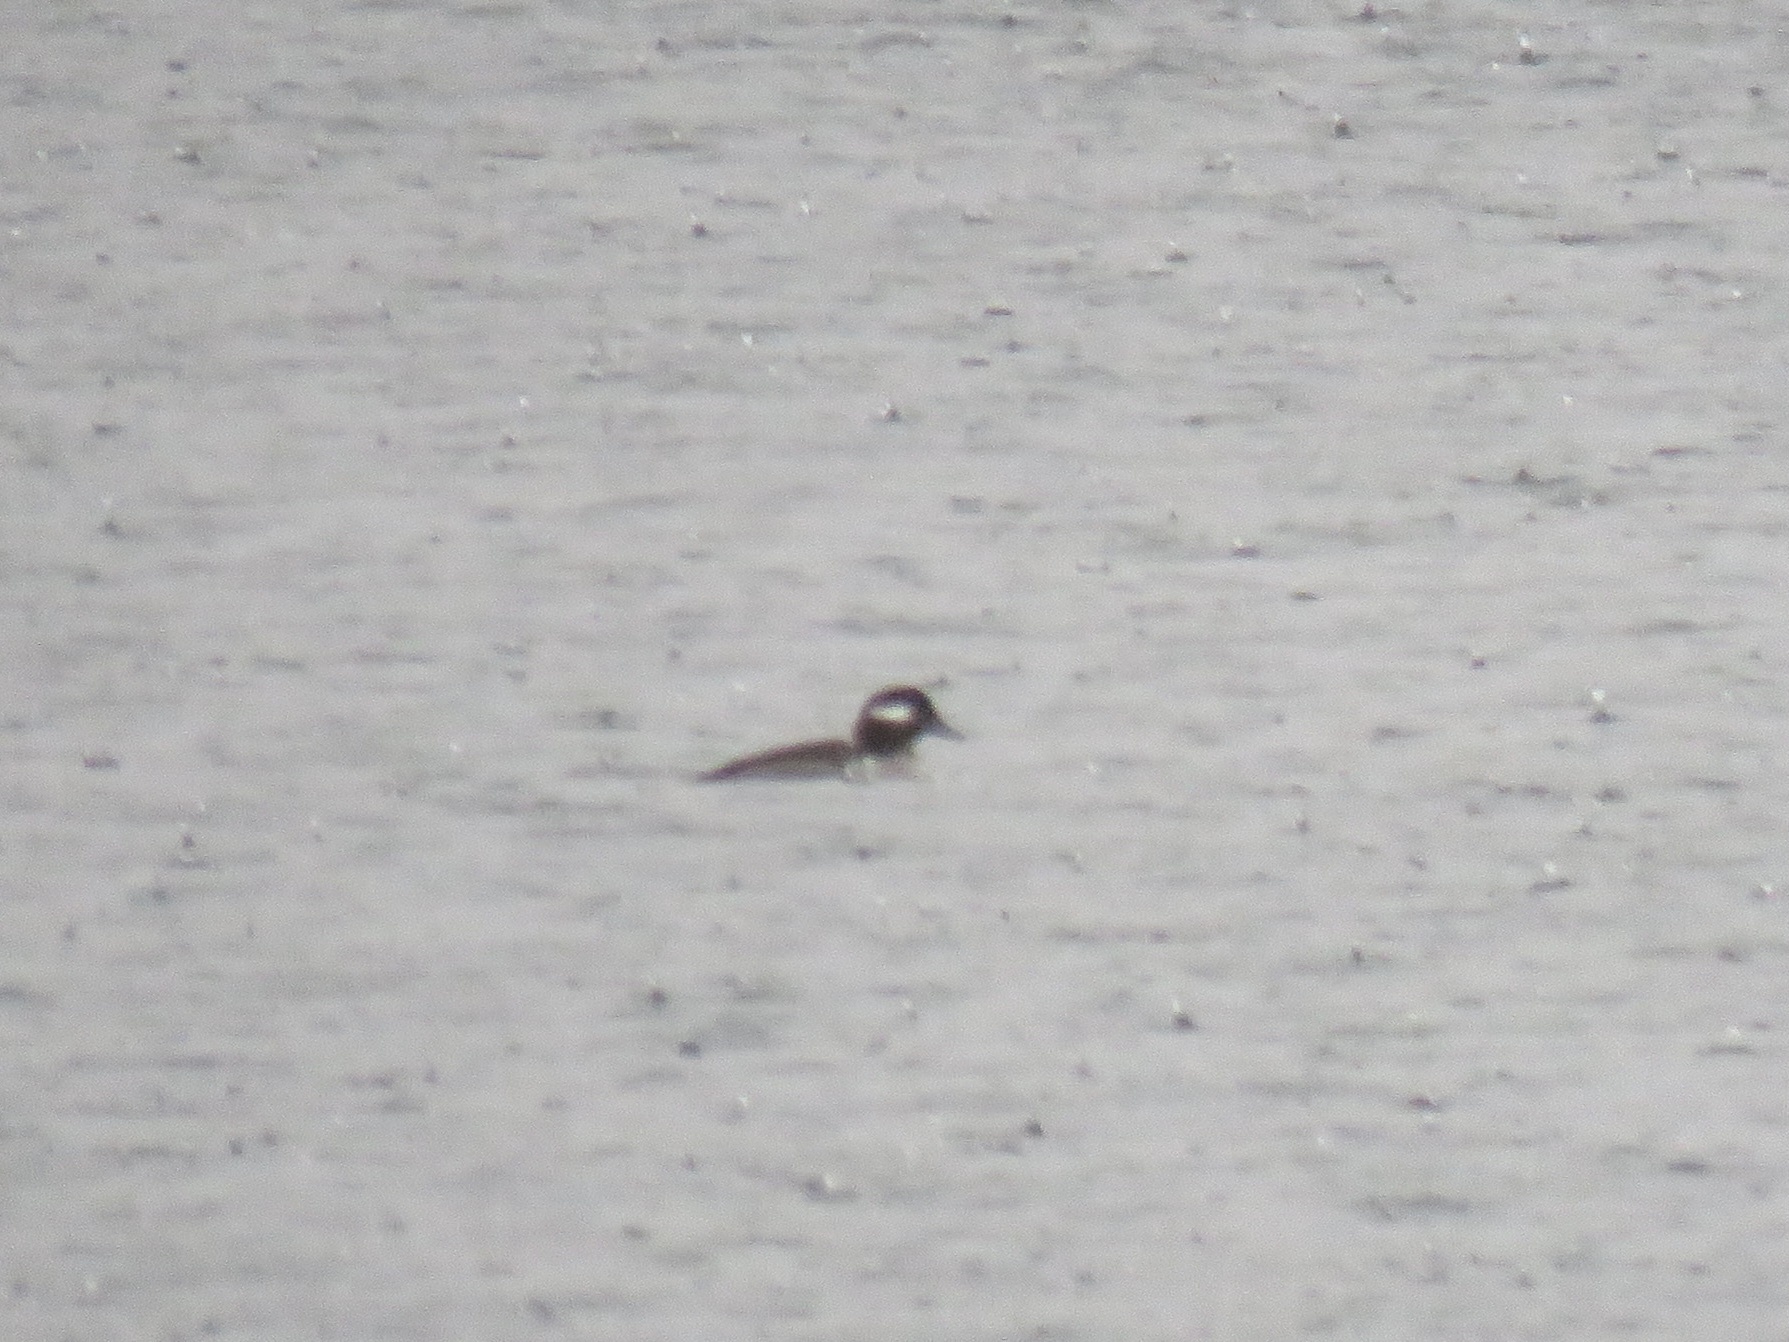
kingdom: Animalia
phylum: Chordata
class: Aves
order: Anseriformes
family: Anatidae
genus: Bucephala
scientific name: Bucephala albeola
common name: Bufflehead
